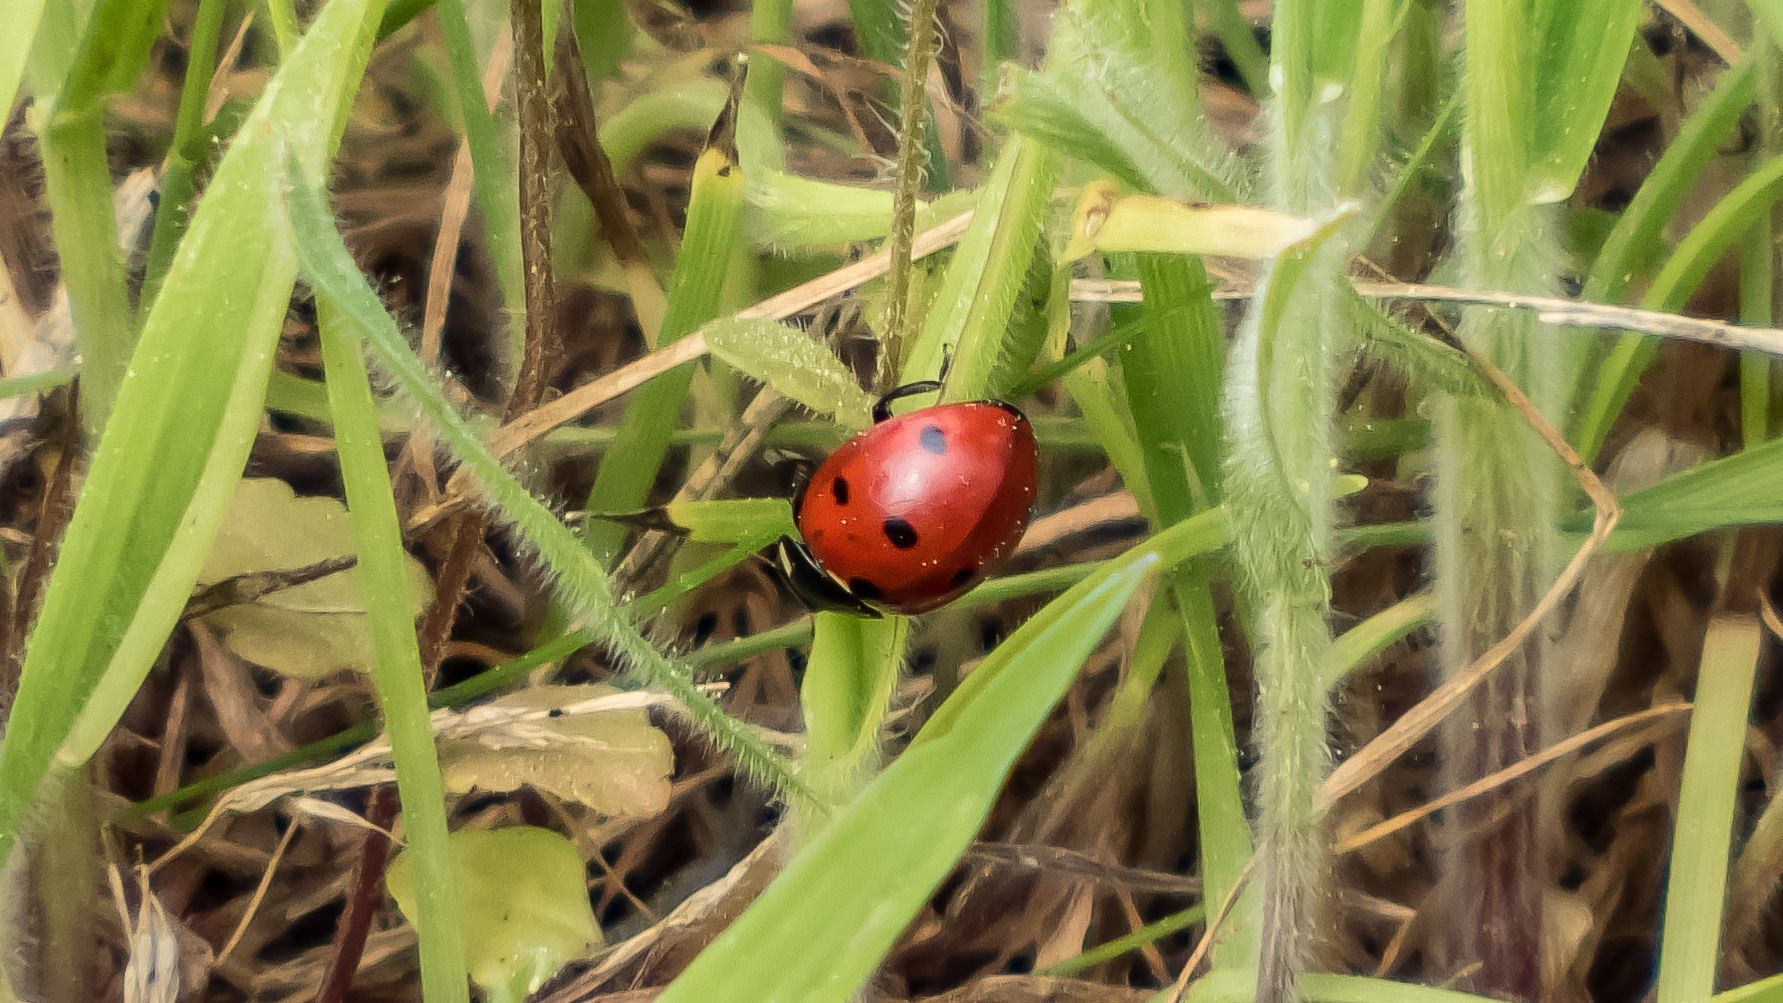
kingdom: Animalia
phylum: Arthropoda
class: Insecta
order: Coleoptera
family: Coccinellidae
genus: Coccinella
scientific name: Coccinella septempunctata
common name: Sevenspotted lady beetle
